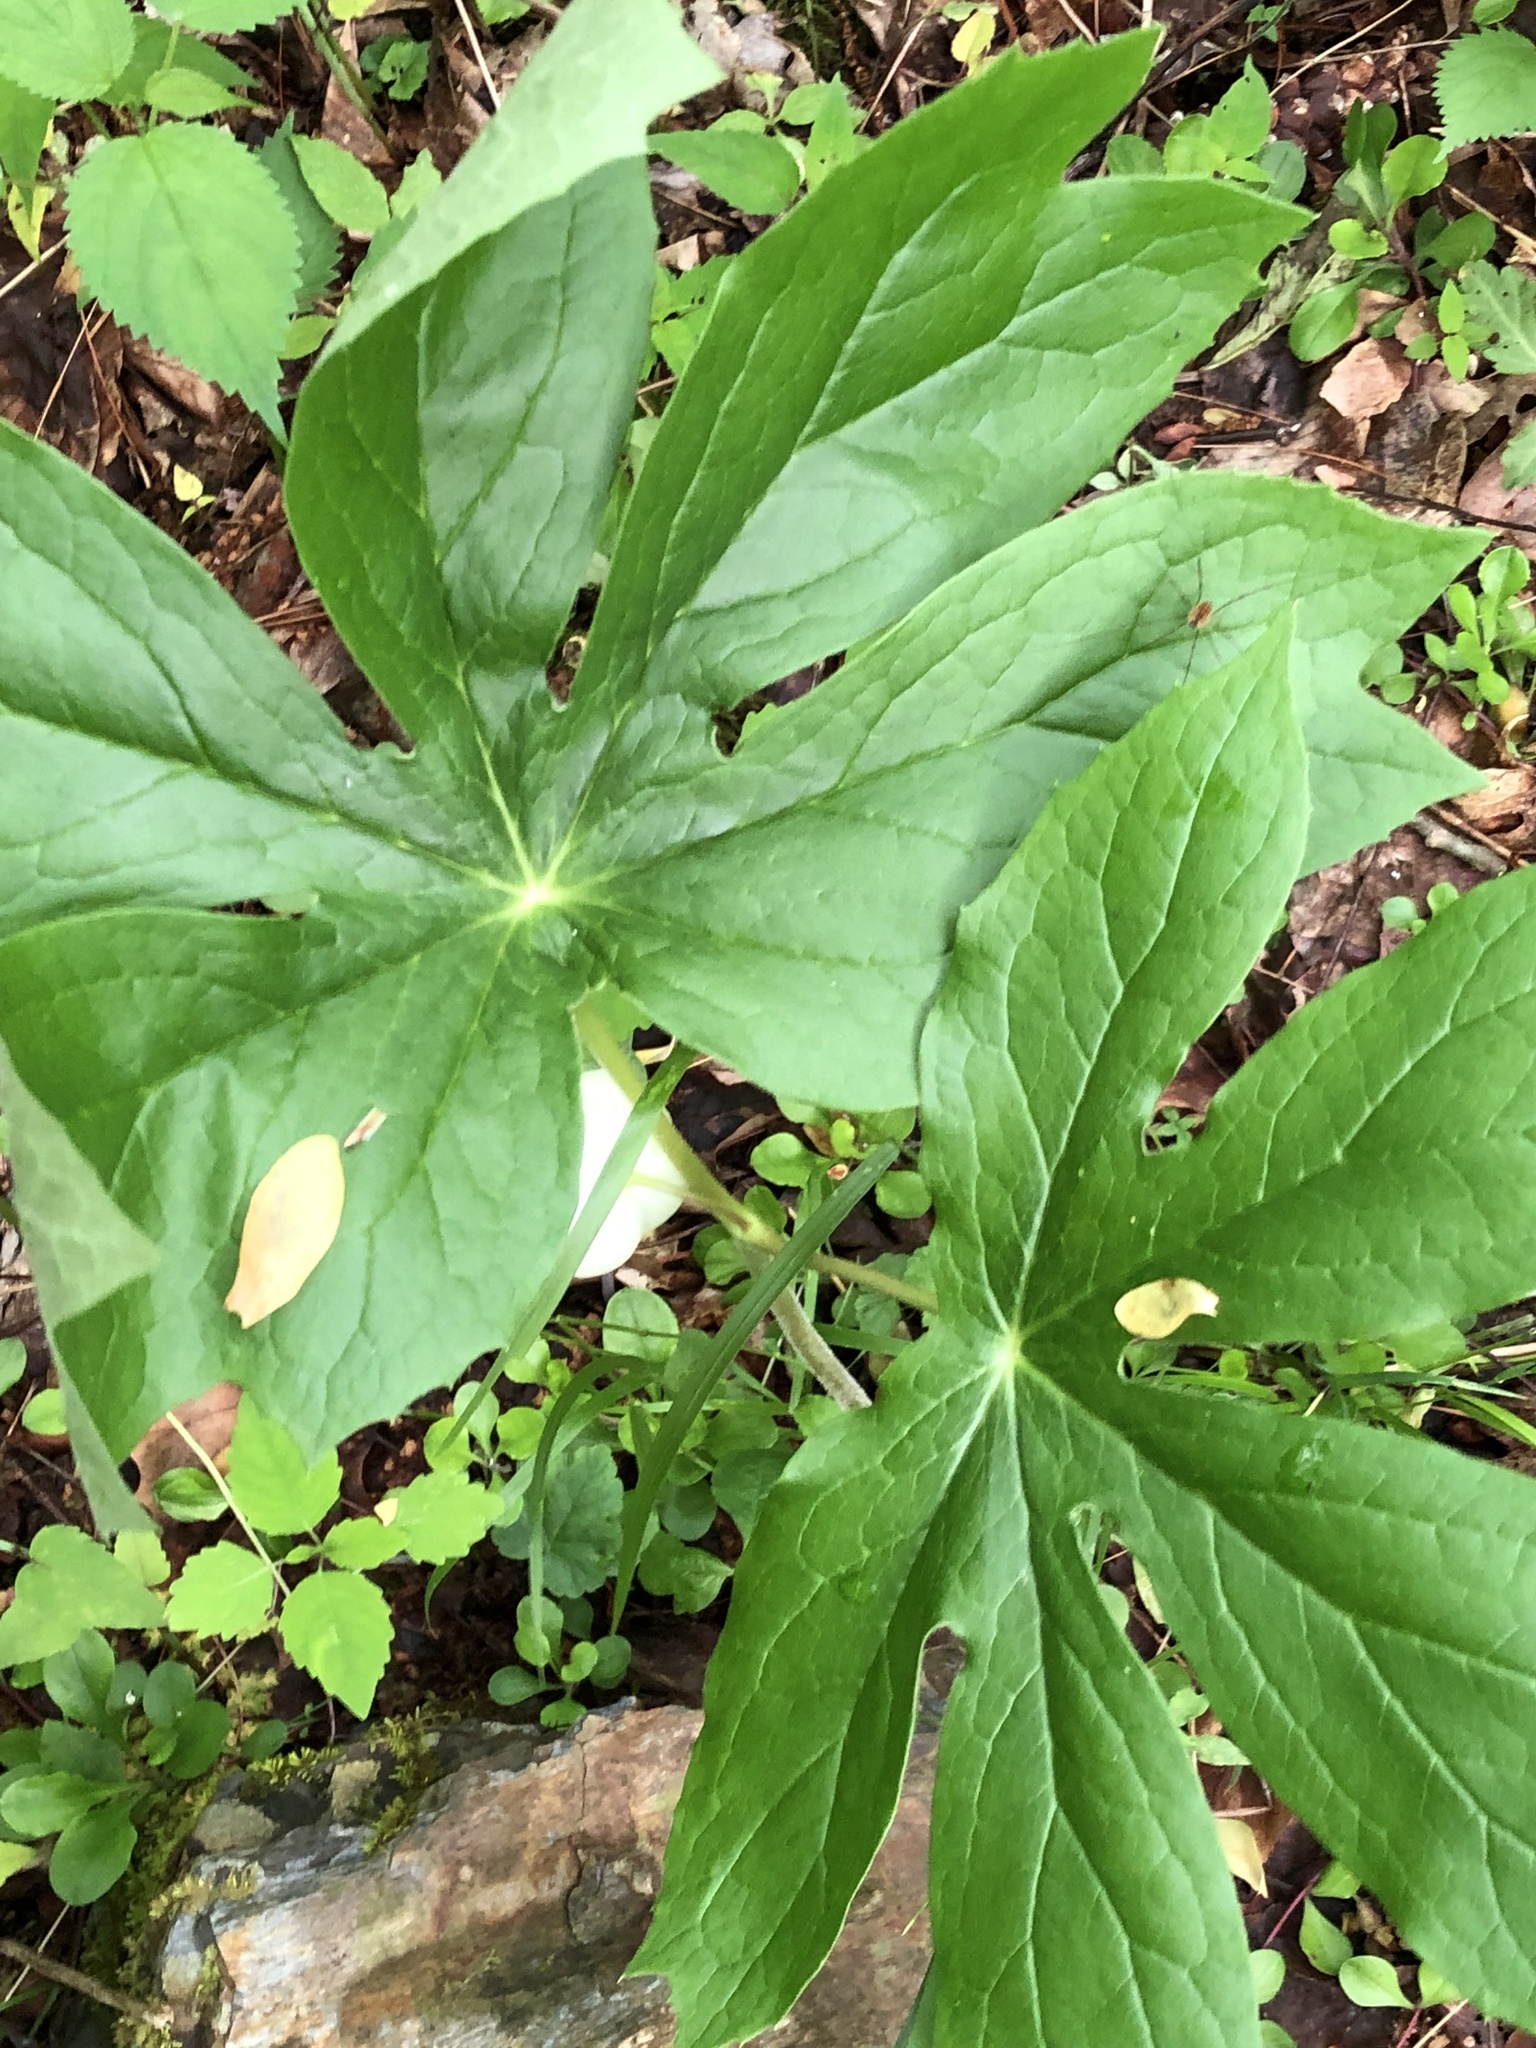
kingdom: Plantae
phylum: Tracheophyta
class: Magnoliopsida
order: Ranunculales
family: Berberidaceae
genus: Podophyllum
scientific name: Podophyllum peltatum
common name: Wild mandrake
